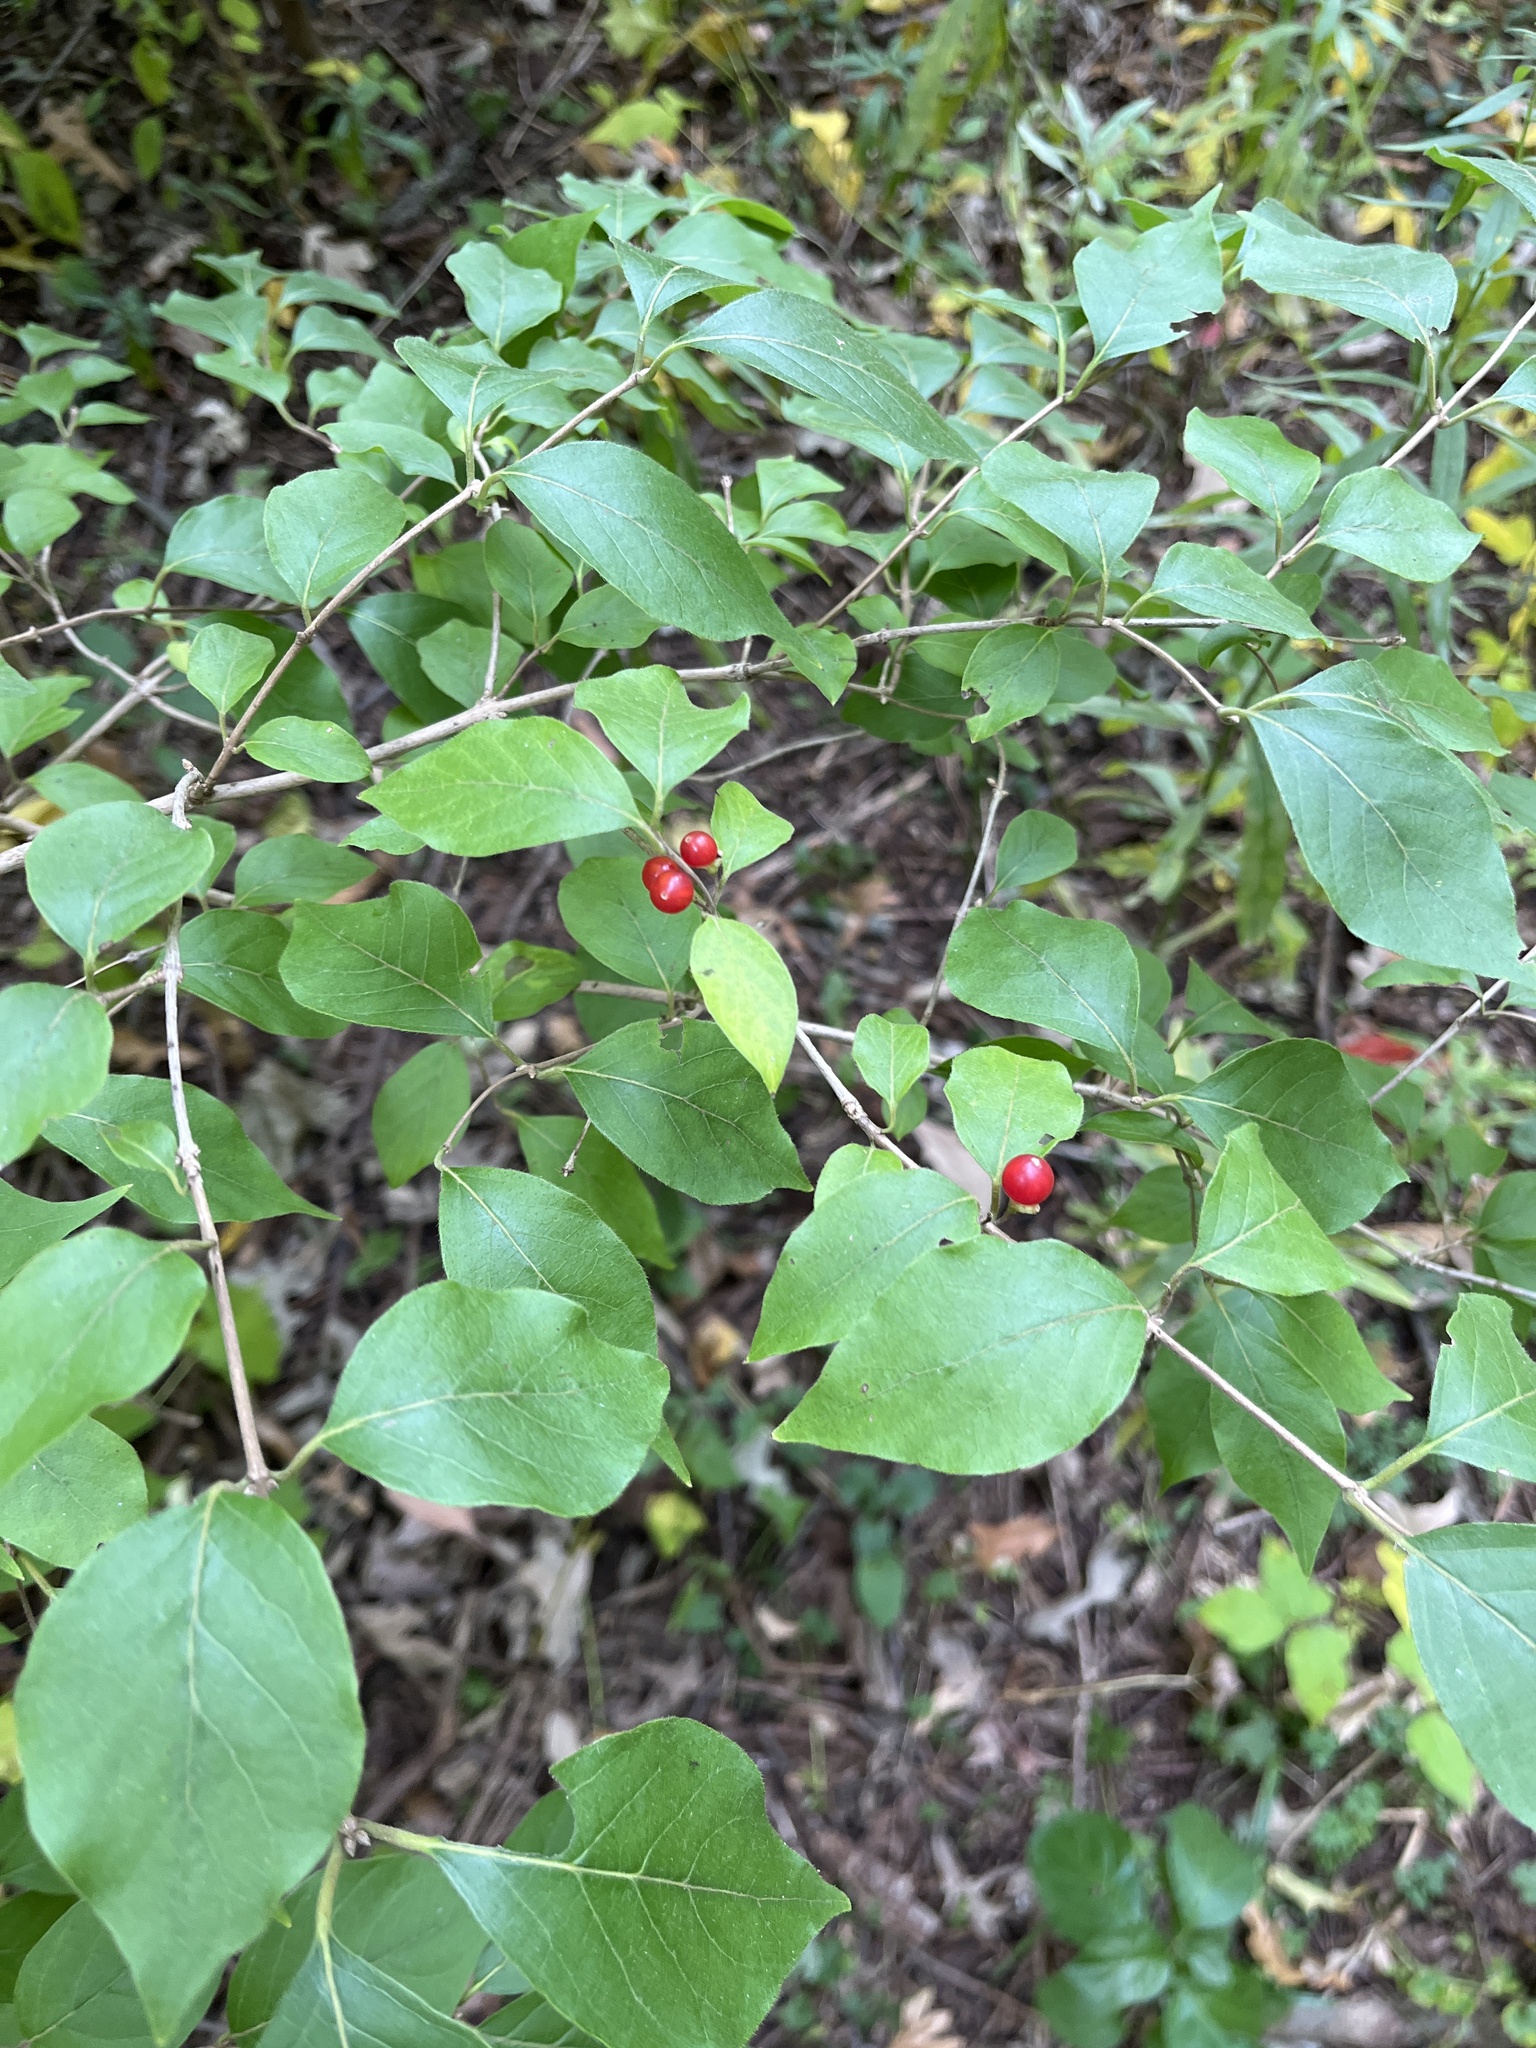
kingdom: Plantae
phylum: Tracheophyta
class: Magnoliopsida
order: Dipsacales
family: Caprifoliaceae
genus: Lonicera
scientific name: Lonicera maackii
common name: Amur honeysuckle
